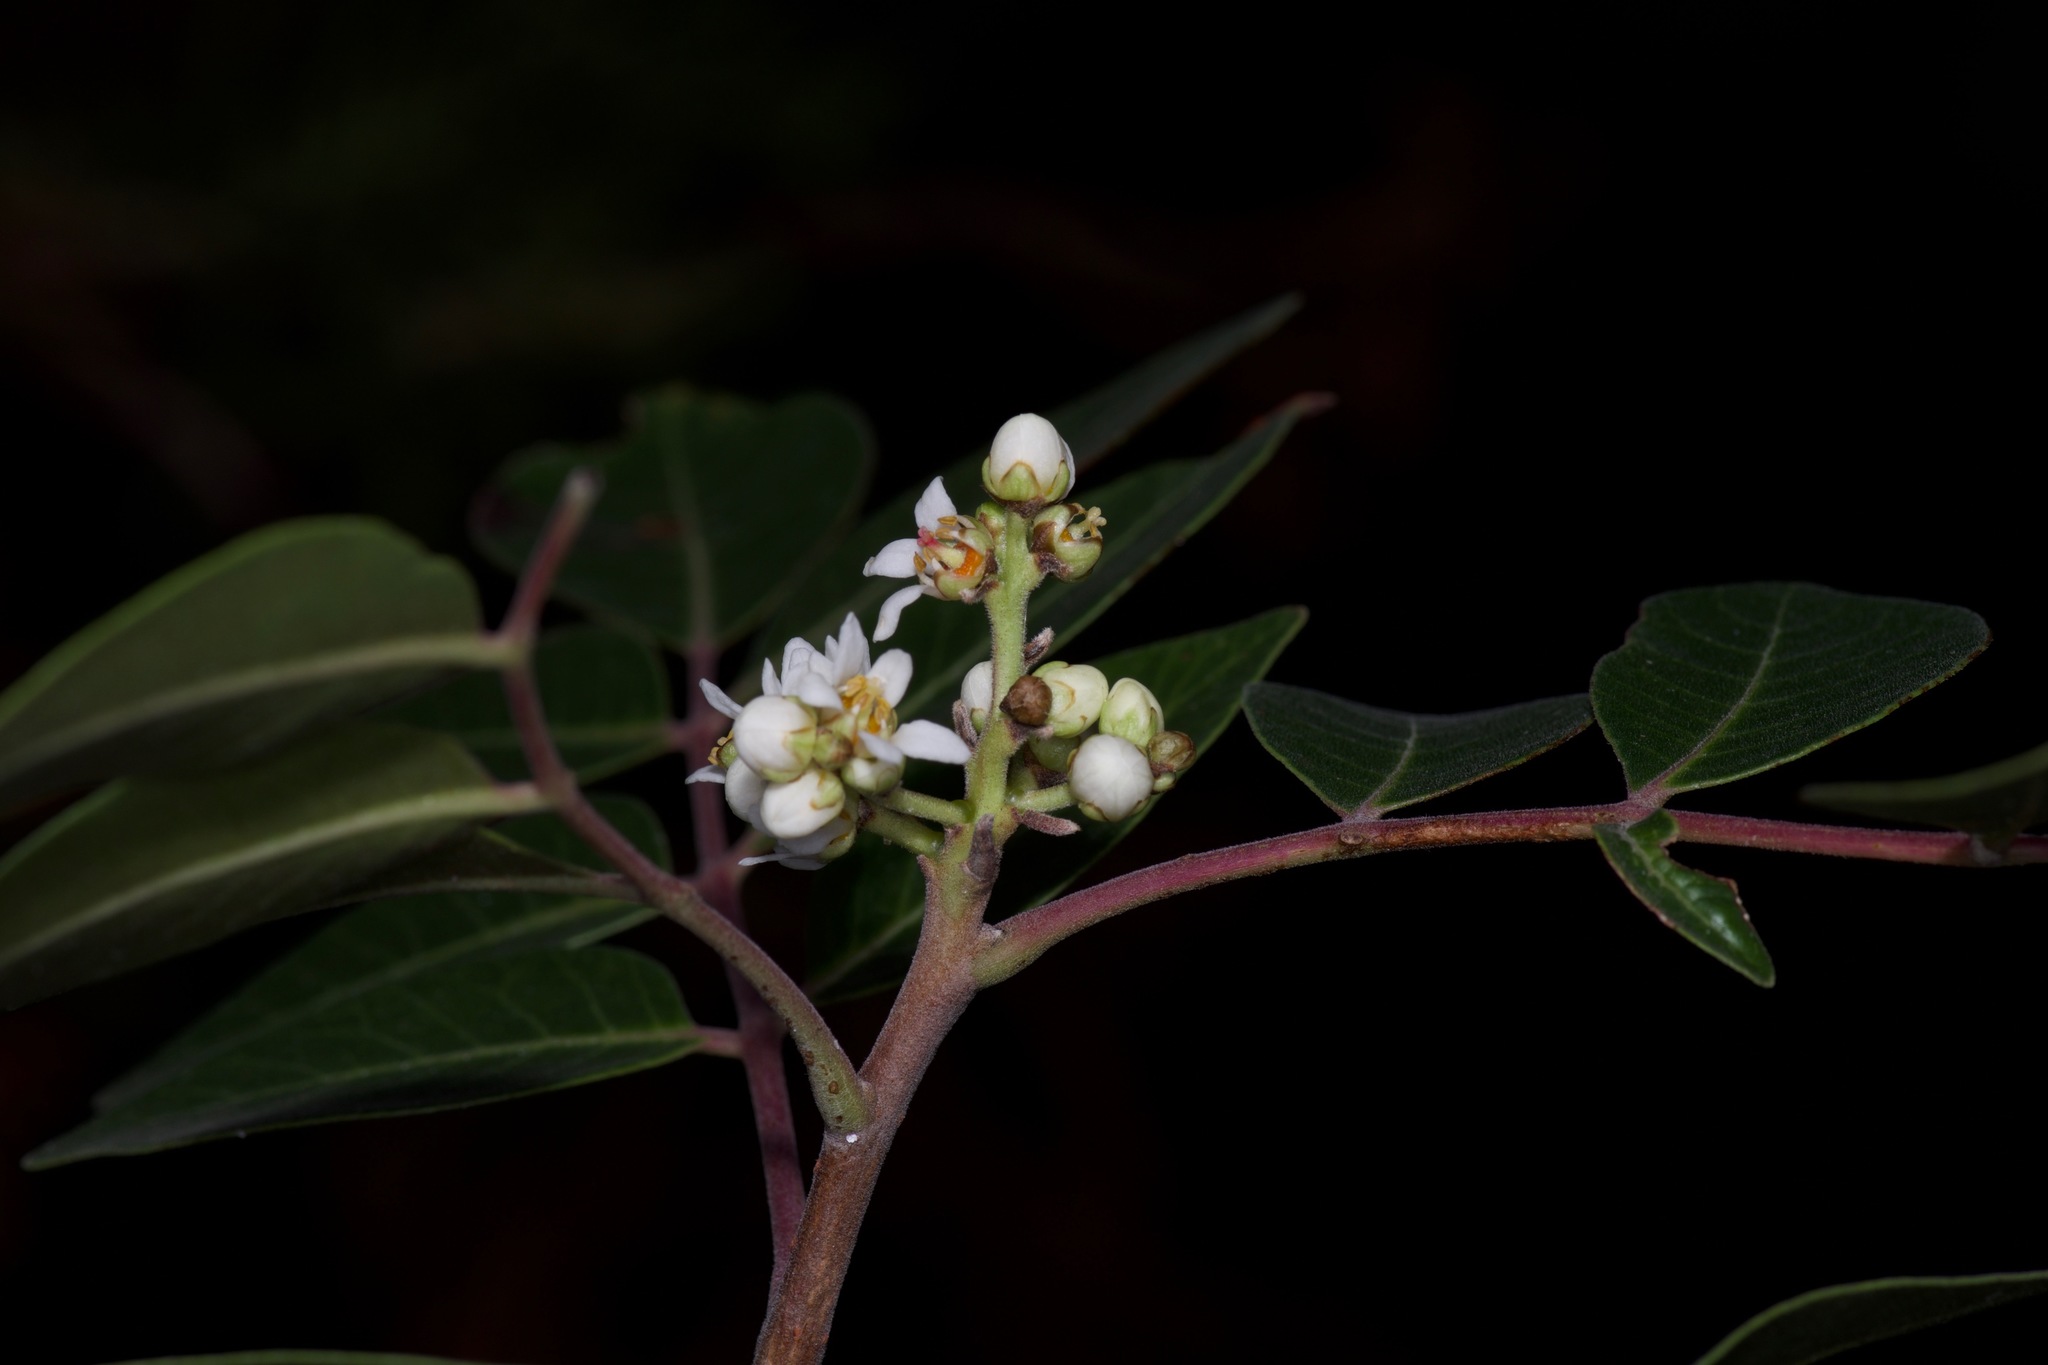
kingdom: Plantae
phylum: Tracheophyta
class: Magnoliopsida
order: Sapindales
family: Anacardiaceae
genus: Rhus
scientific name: Rhus virens
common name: Evergreen sumac
